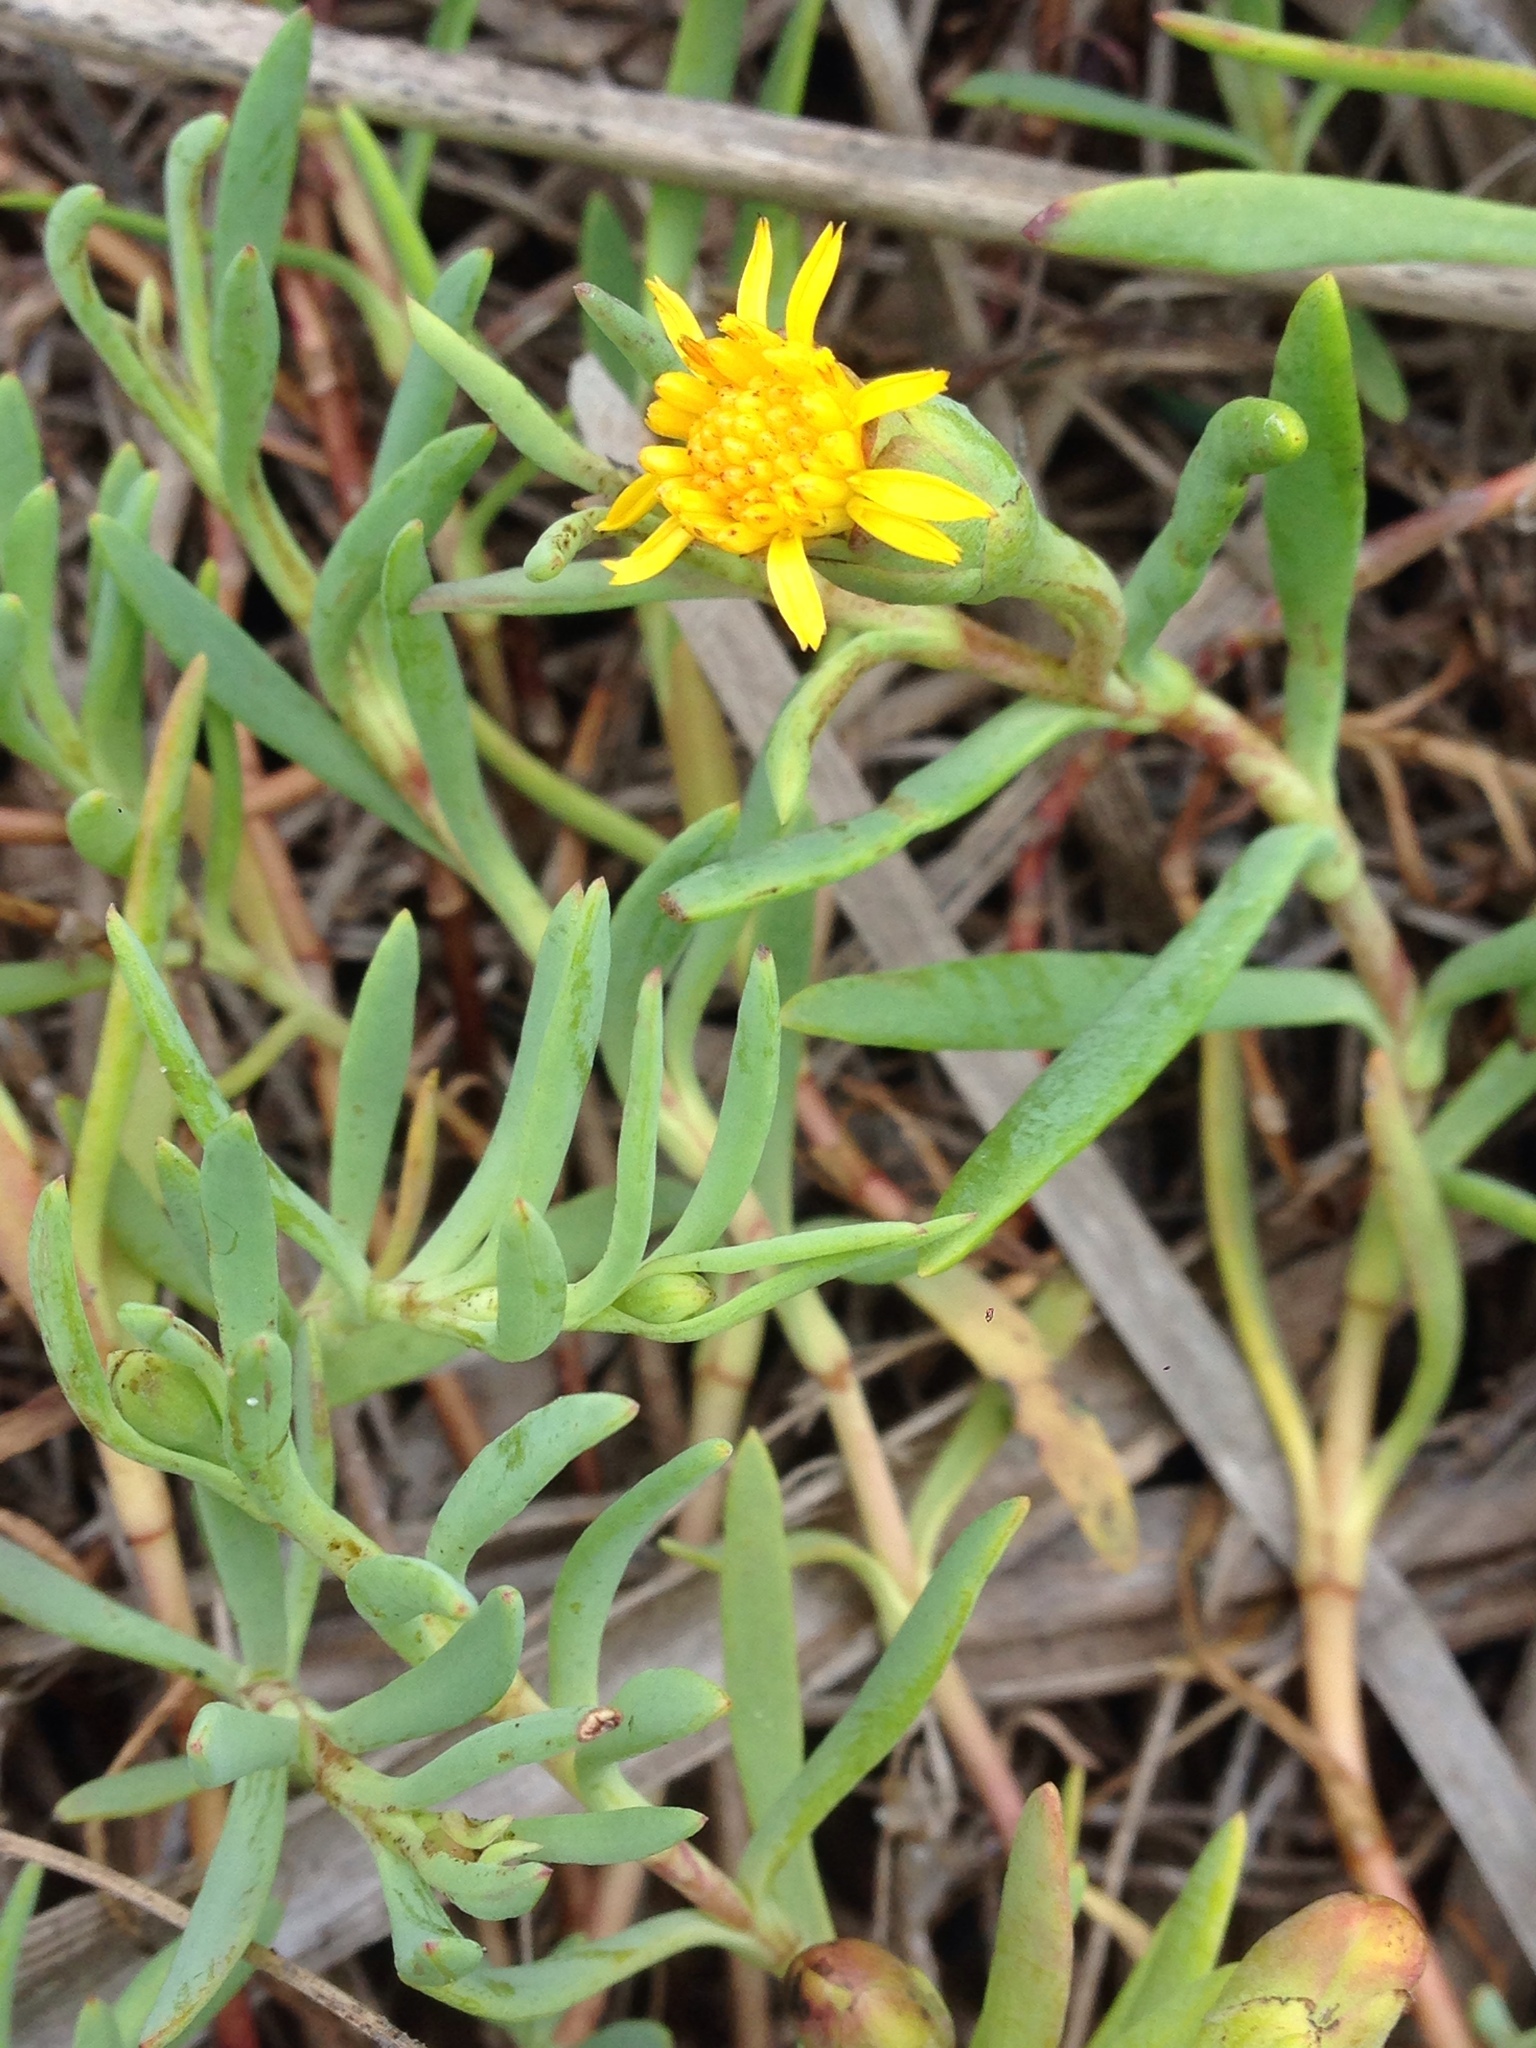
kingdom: Plantae
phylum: Tracheophyta
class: Magnoliopsida
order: Asterales
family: Asteraceae
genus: Jaumea
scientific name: Jaumea carnosa
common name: Fleshy jaumea
